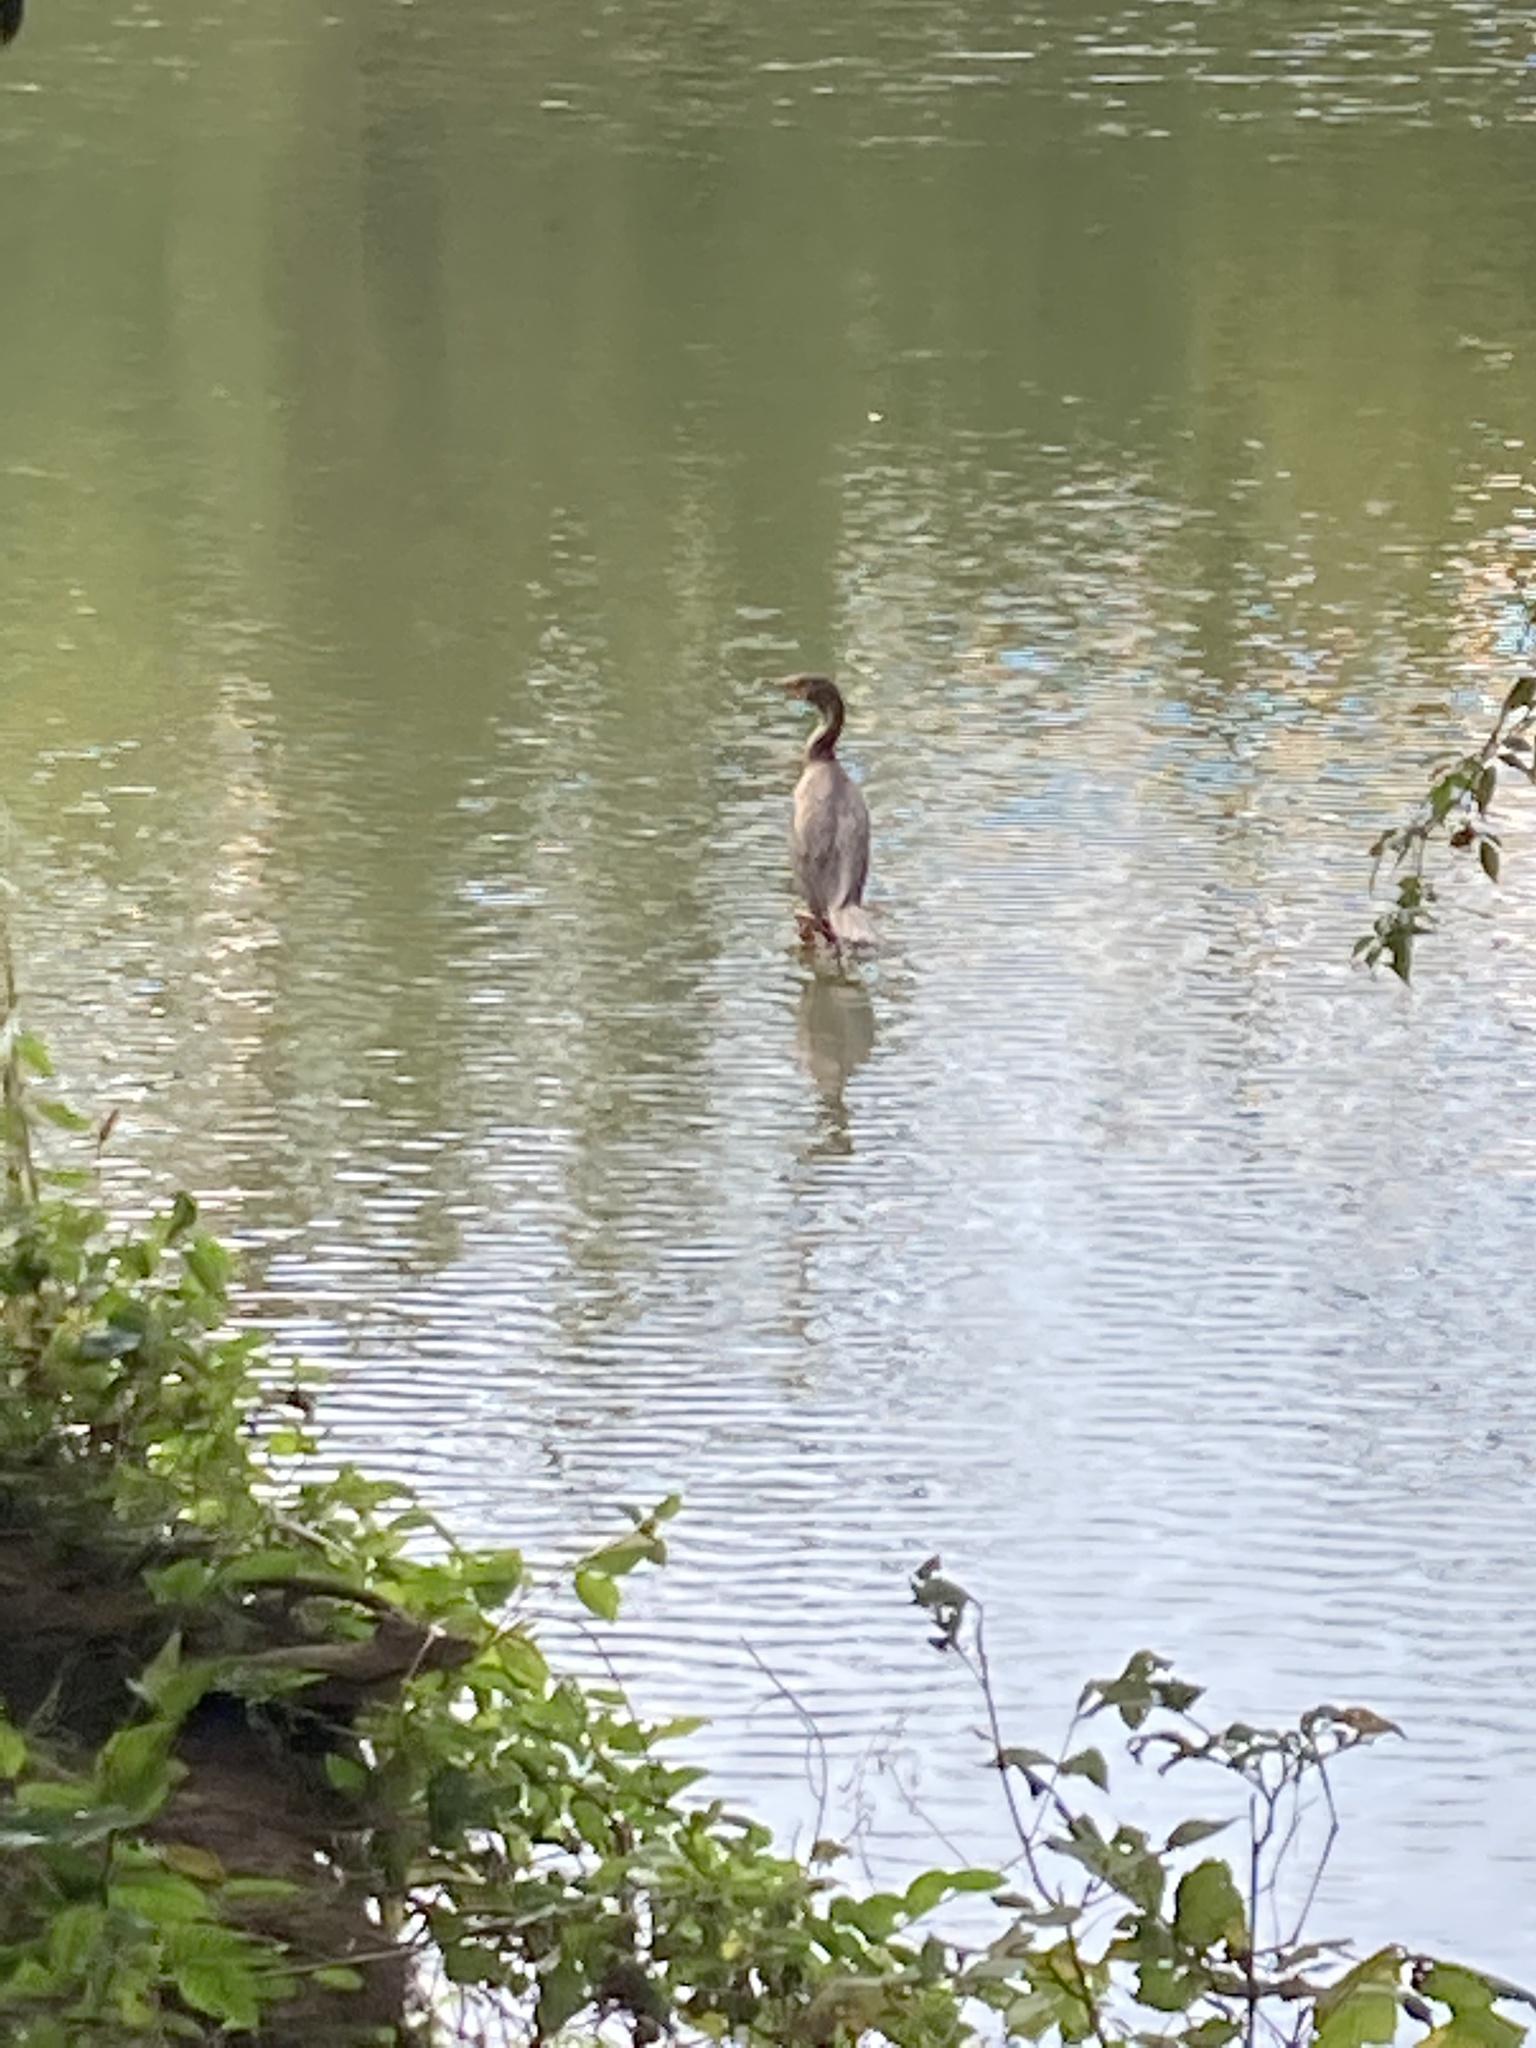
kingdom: Animalia
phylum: Chordata
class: Aves
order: Suliformes
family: Phalacrocoracidae
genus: Phalacrocorax
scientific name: Phalacrocorax auritus
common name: Double-crested cormorant
